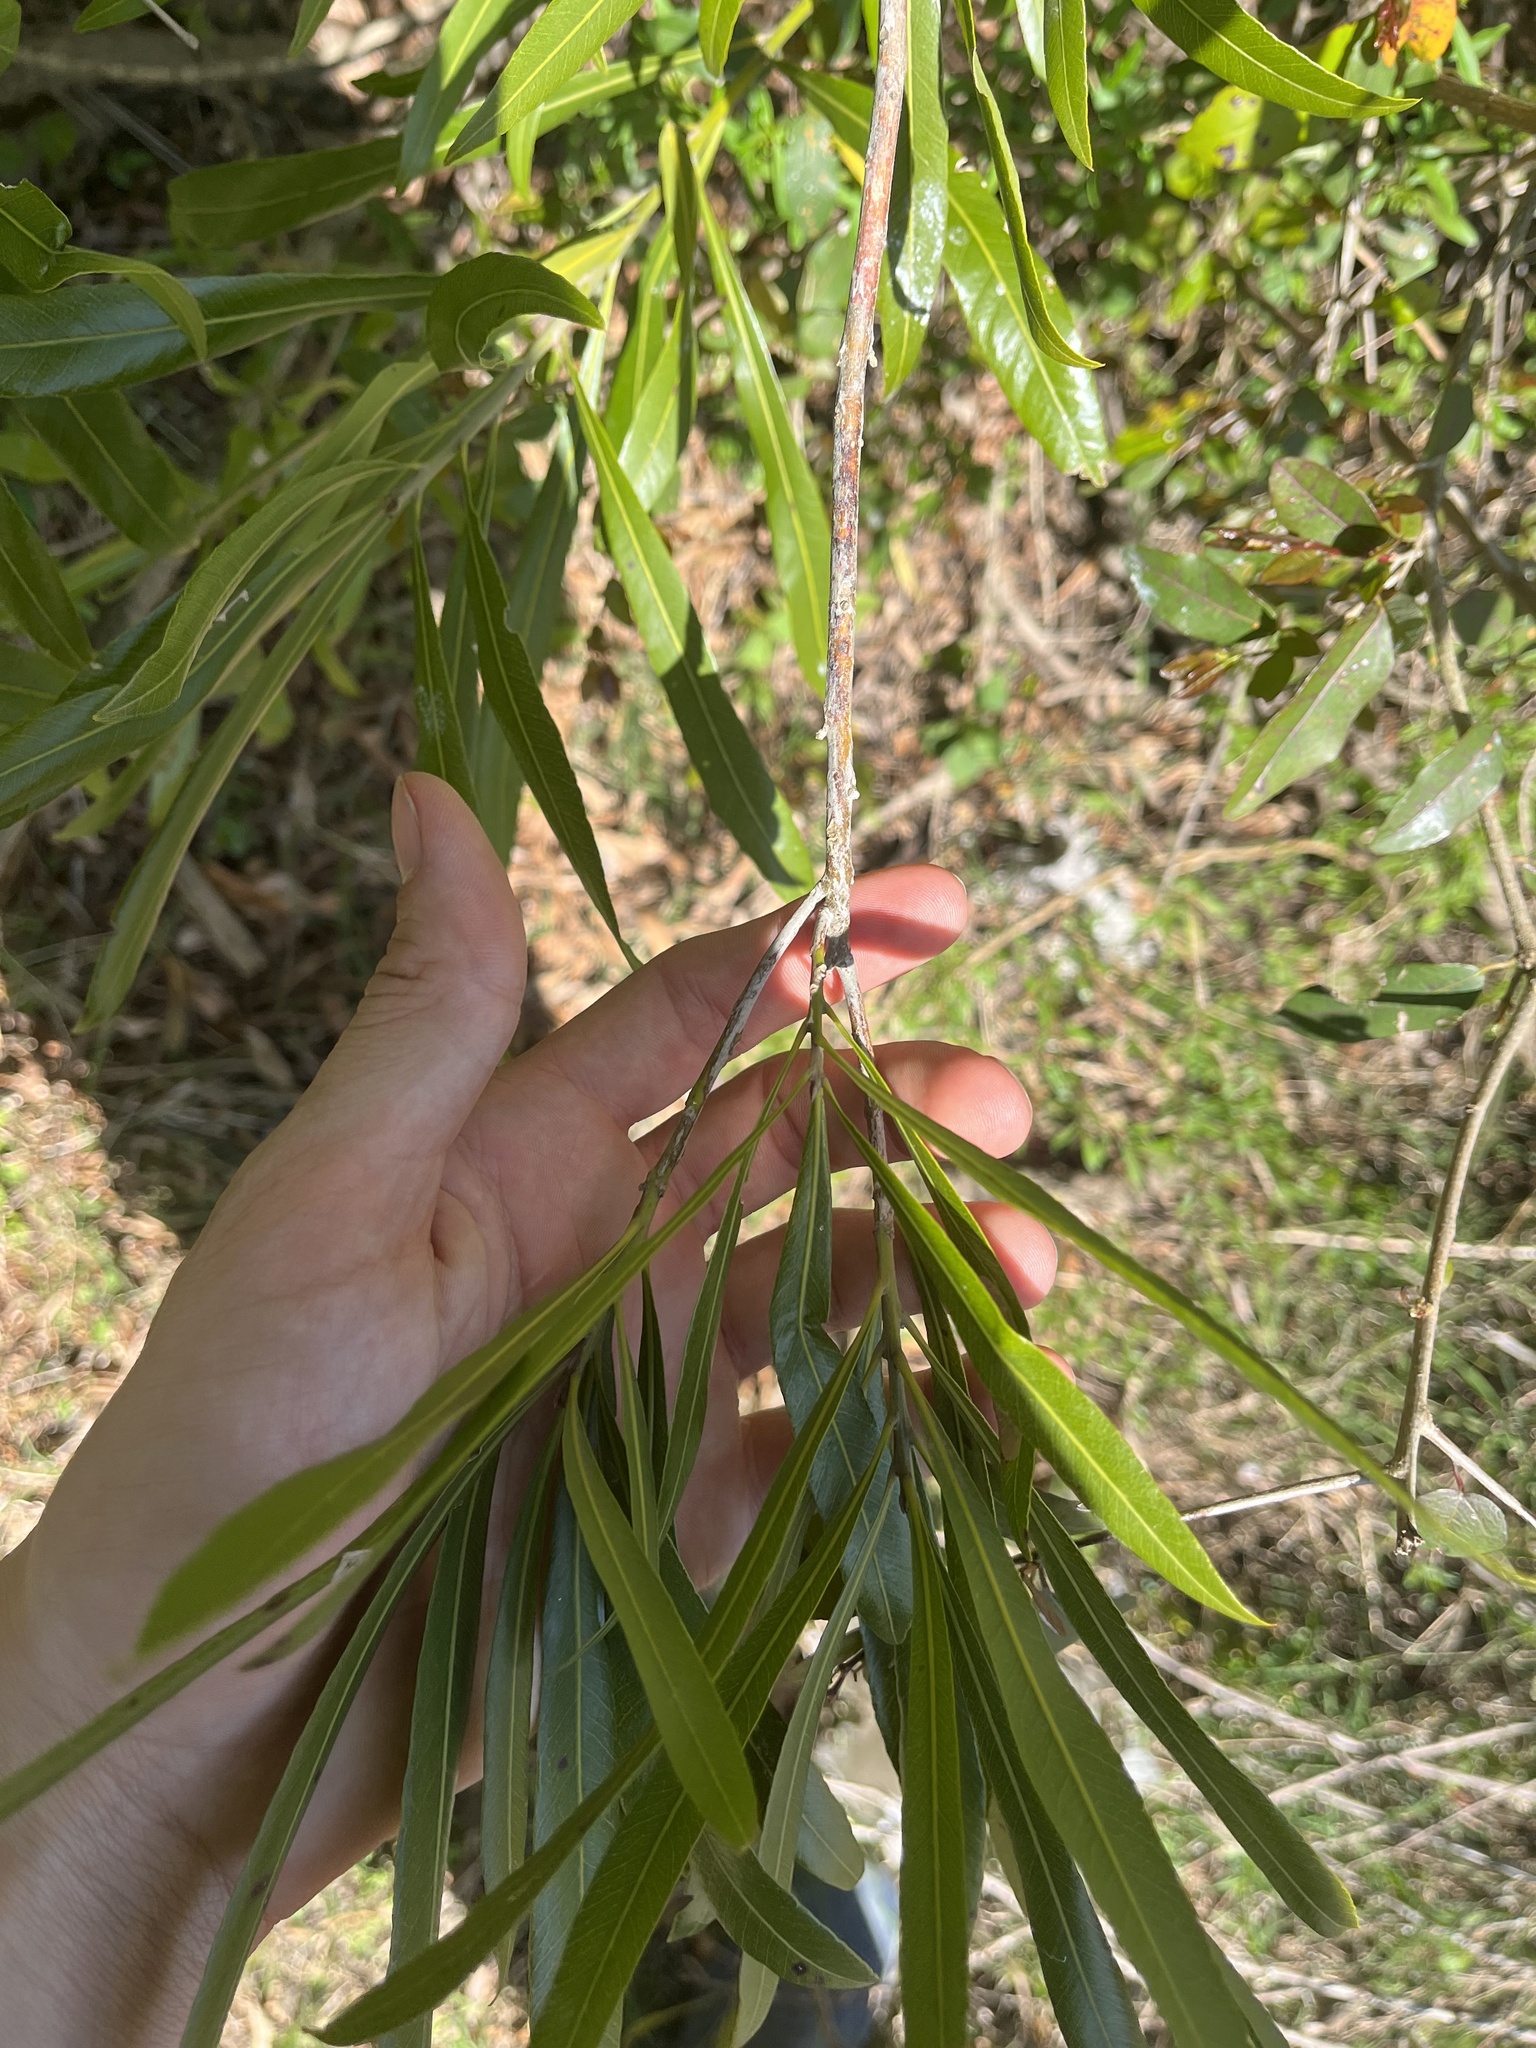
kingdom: Plantae
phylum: Tracheophyta
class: Magnoliopsida
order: Ericales
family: Sapotaceae
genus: Labatia
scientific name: Labatia salicifolia
